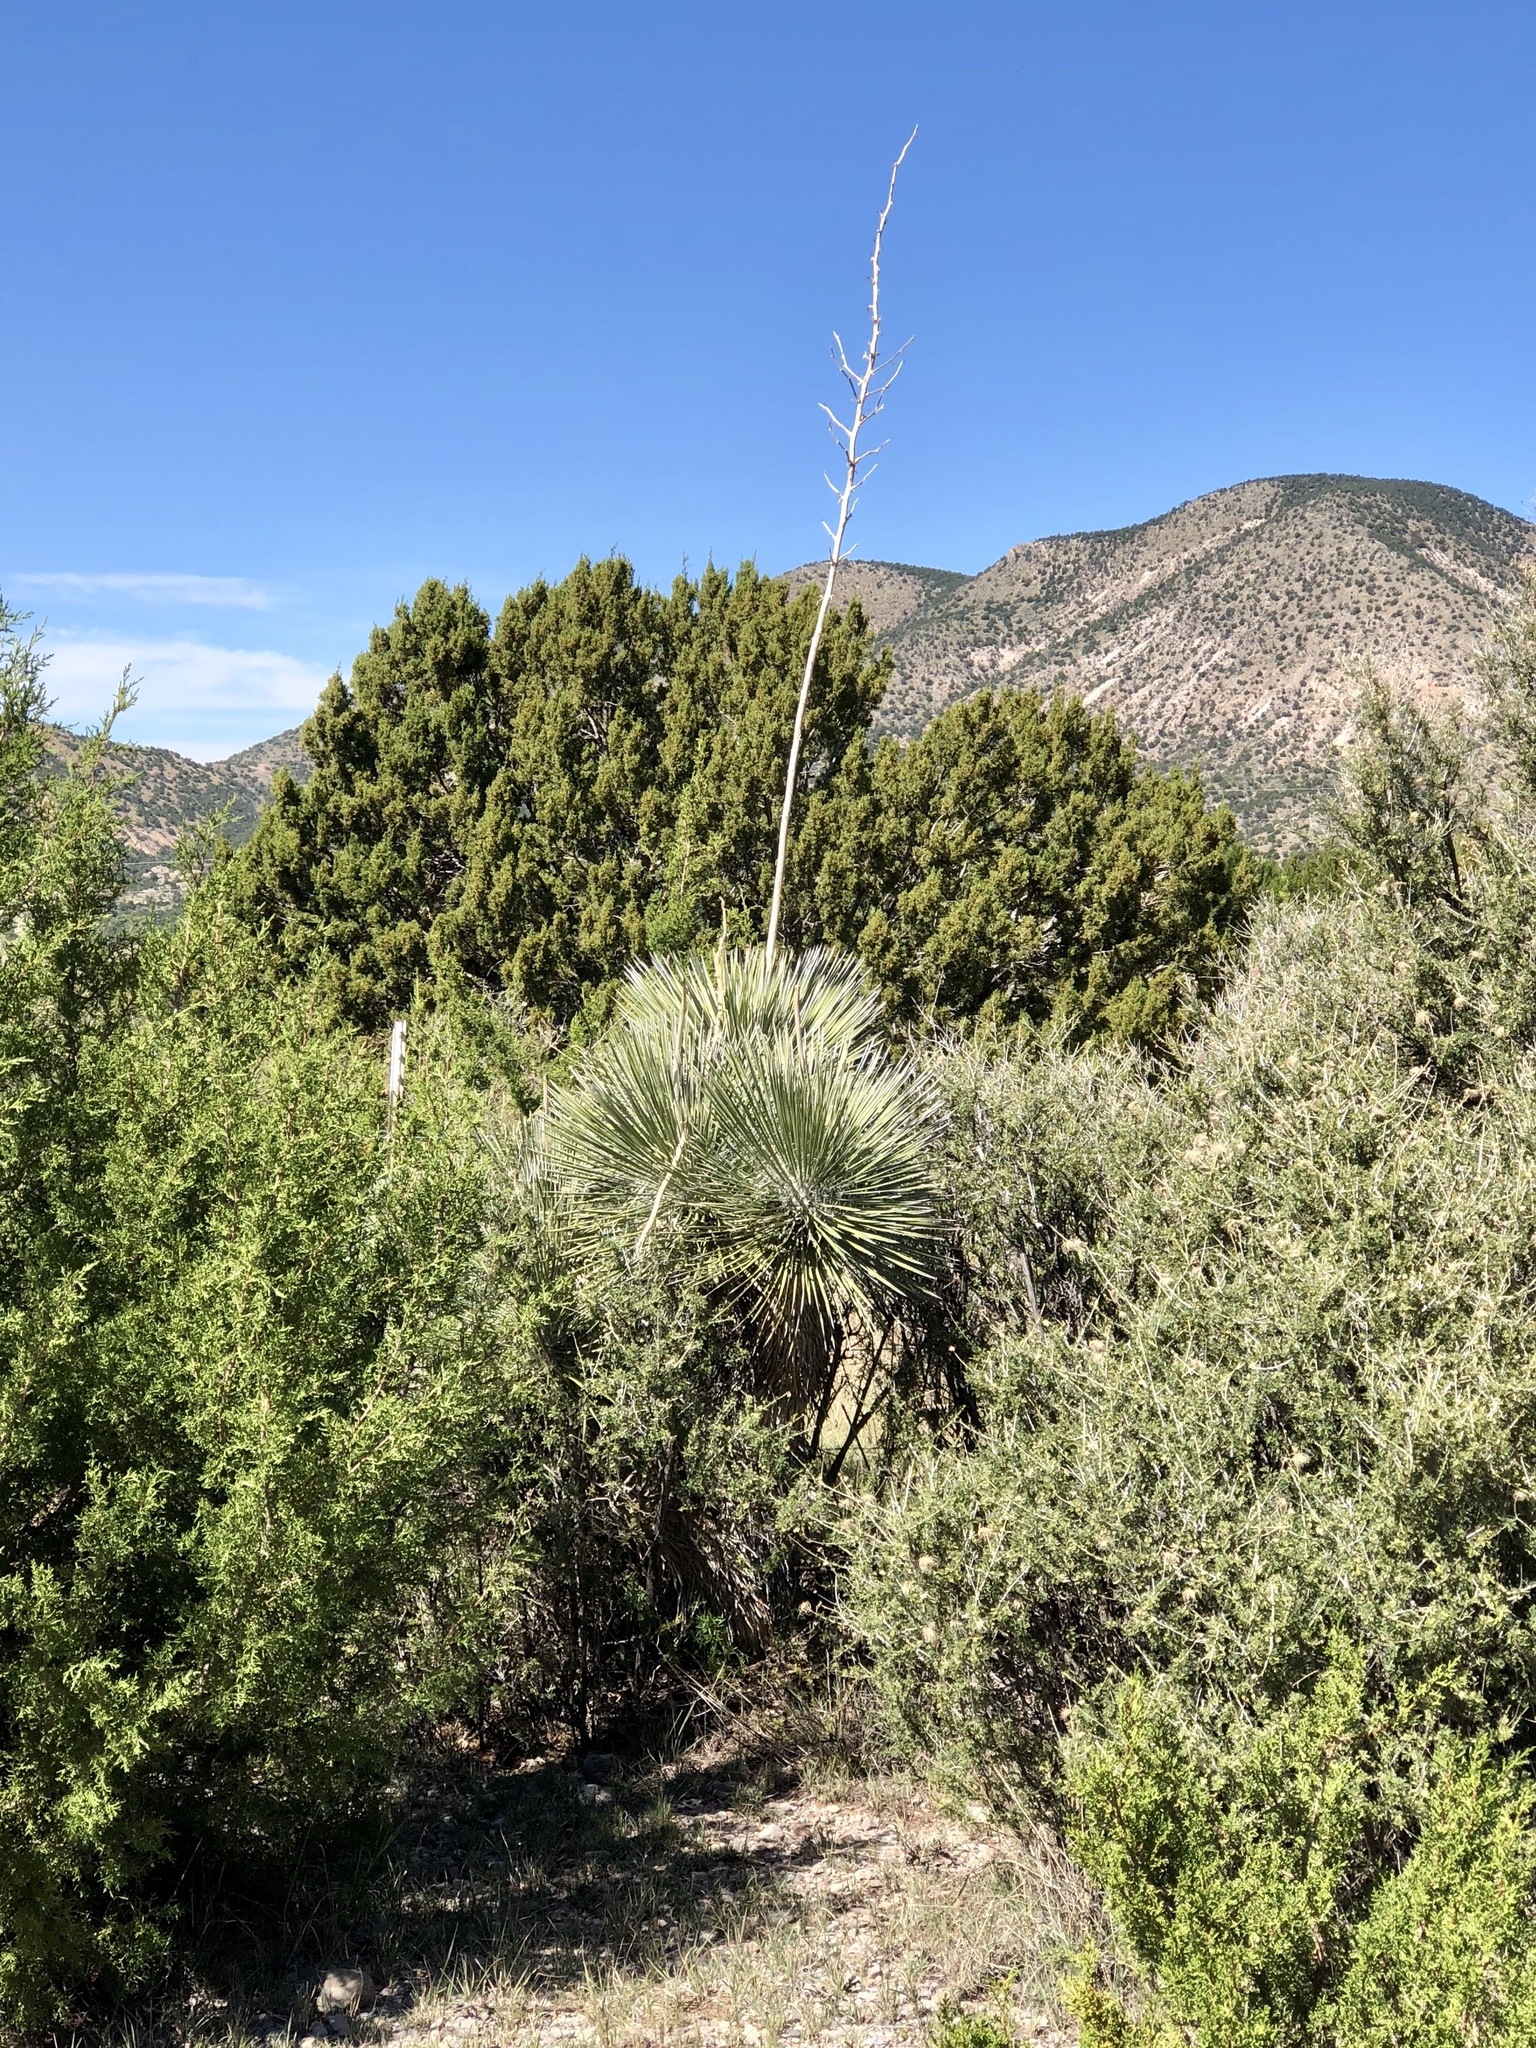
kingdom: Plantae
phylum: Tracheophyta
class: Liliopsida
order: Asparagales
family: Asparagaceae
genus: Yucca
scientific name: Yucca elata
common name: Palmella
